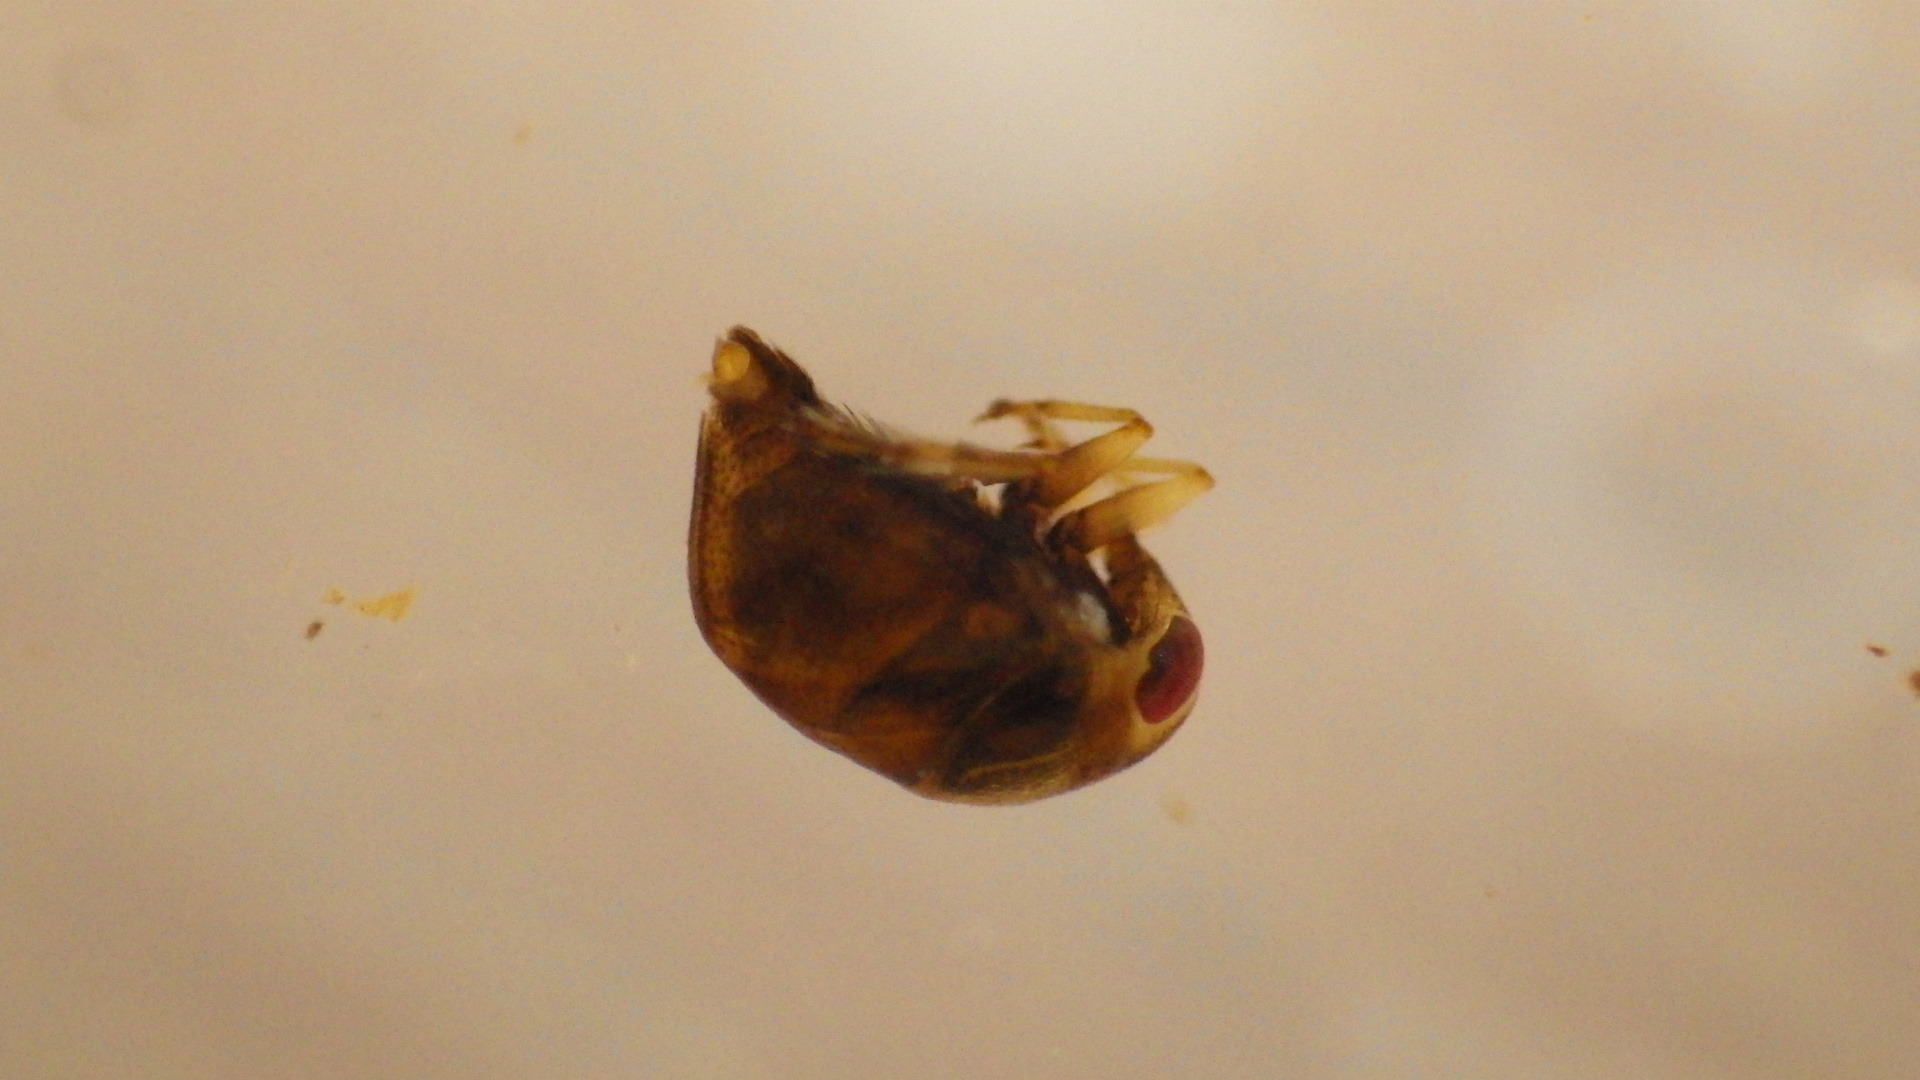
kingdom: Animalia
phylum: Arthropoda
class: Insecta
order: Hemiptera
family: Pleidae
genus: Neoplea
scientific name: Neoplea striola
